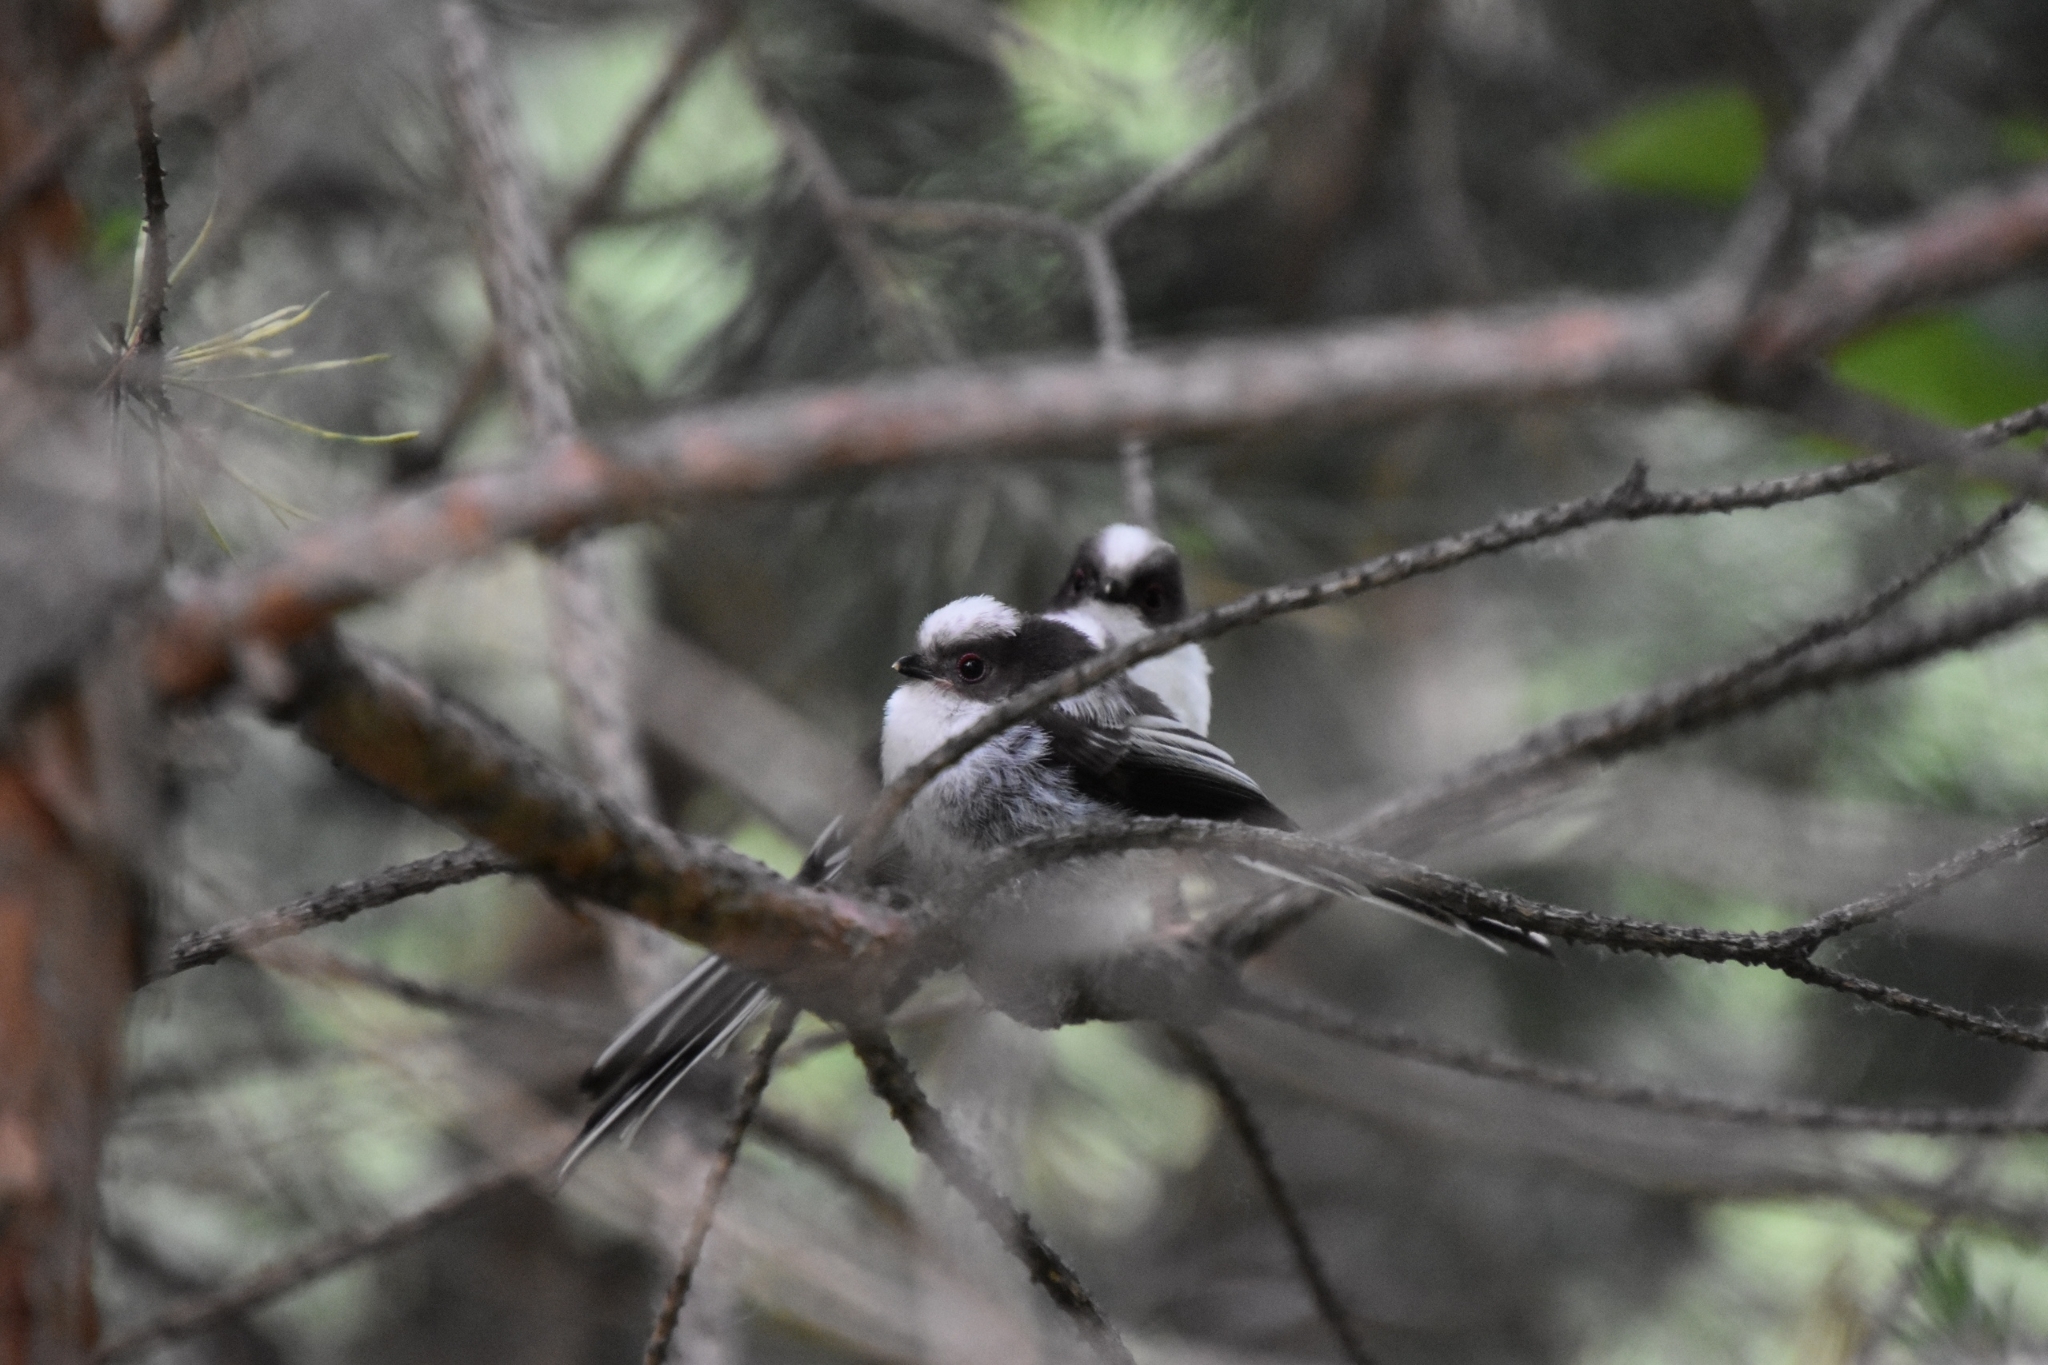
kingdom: Animalia
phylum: Chordata
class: Aves
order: Passeriformes
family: Aegithalidae
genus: Aegithalos
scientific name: Aegithalos caudatus
